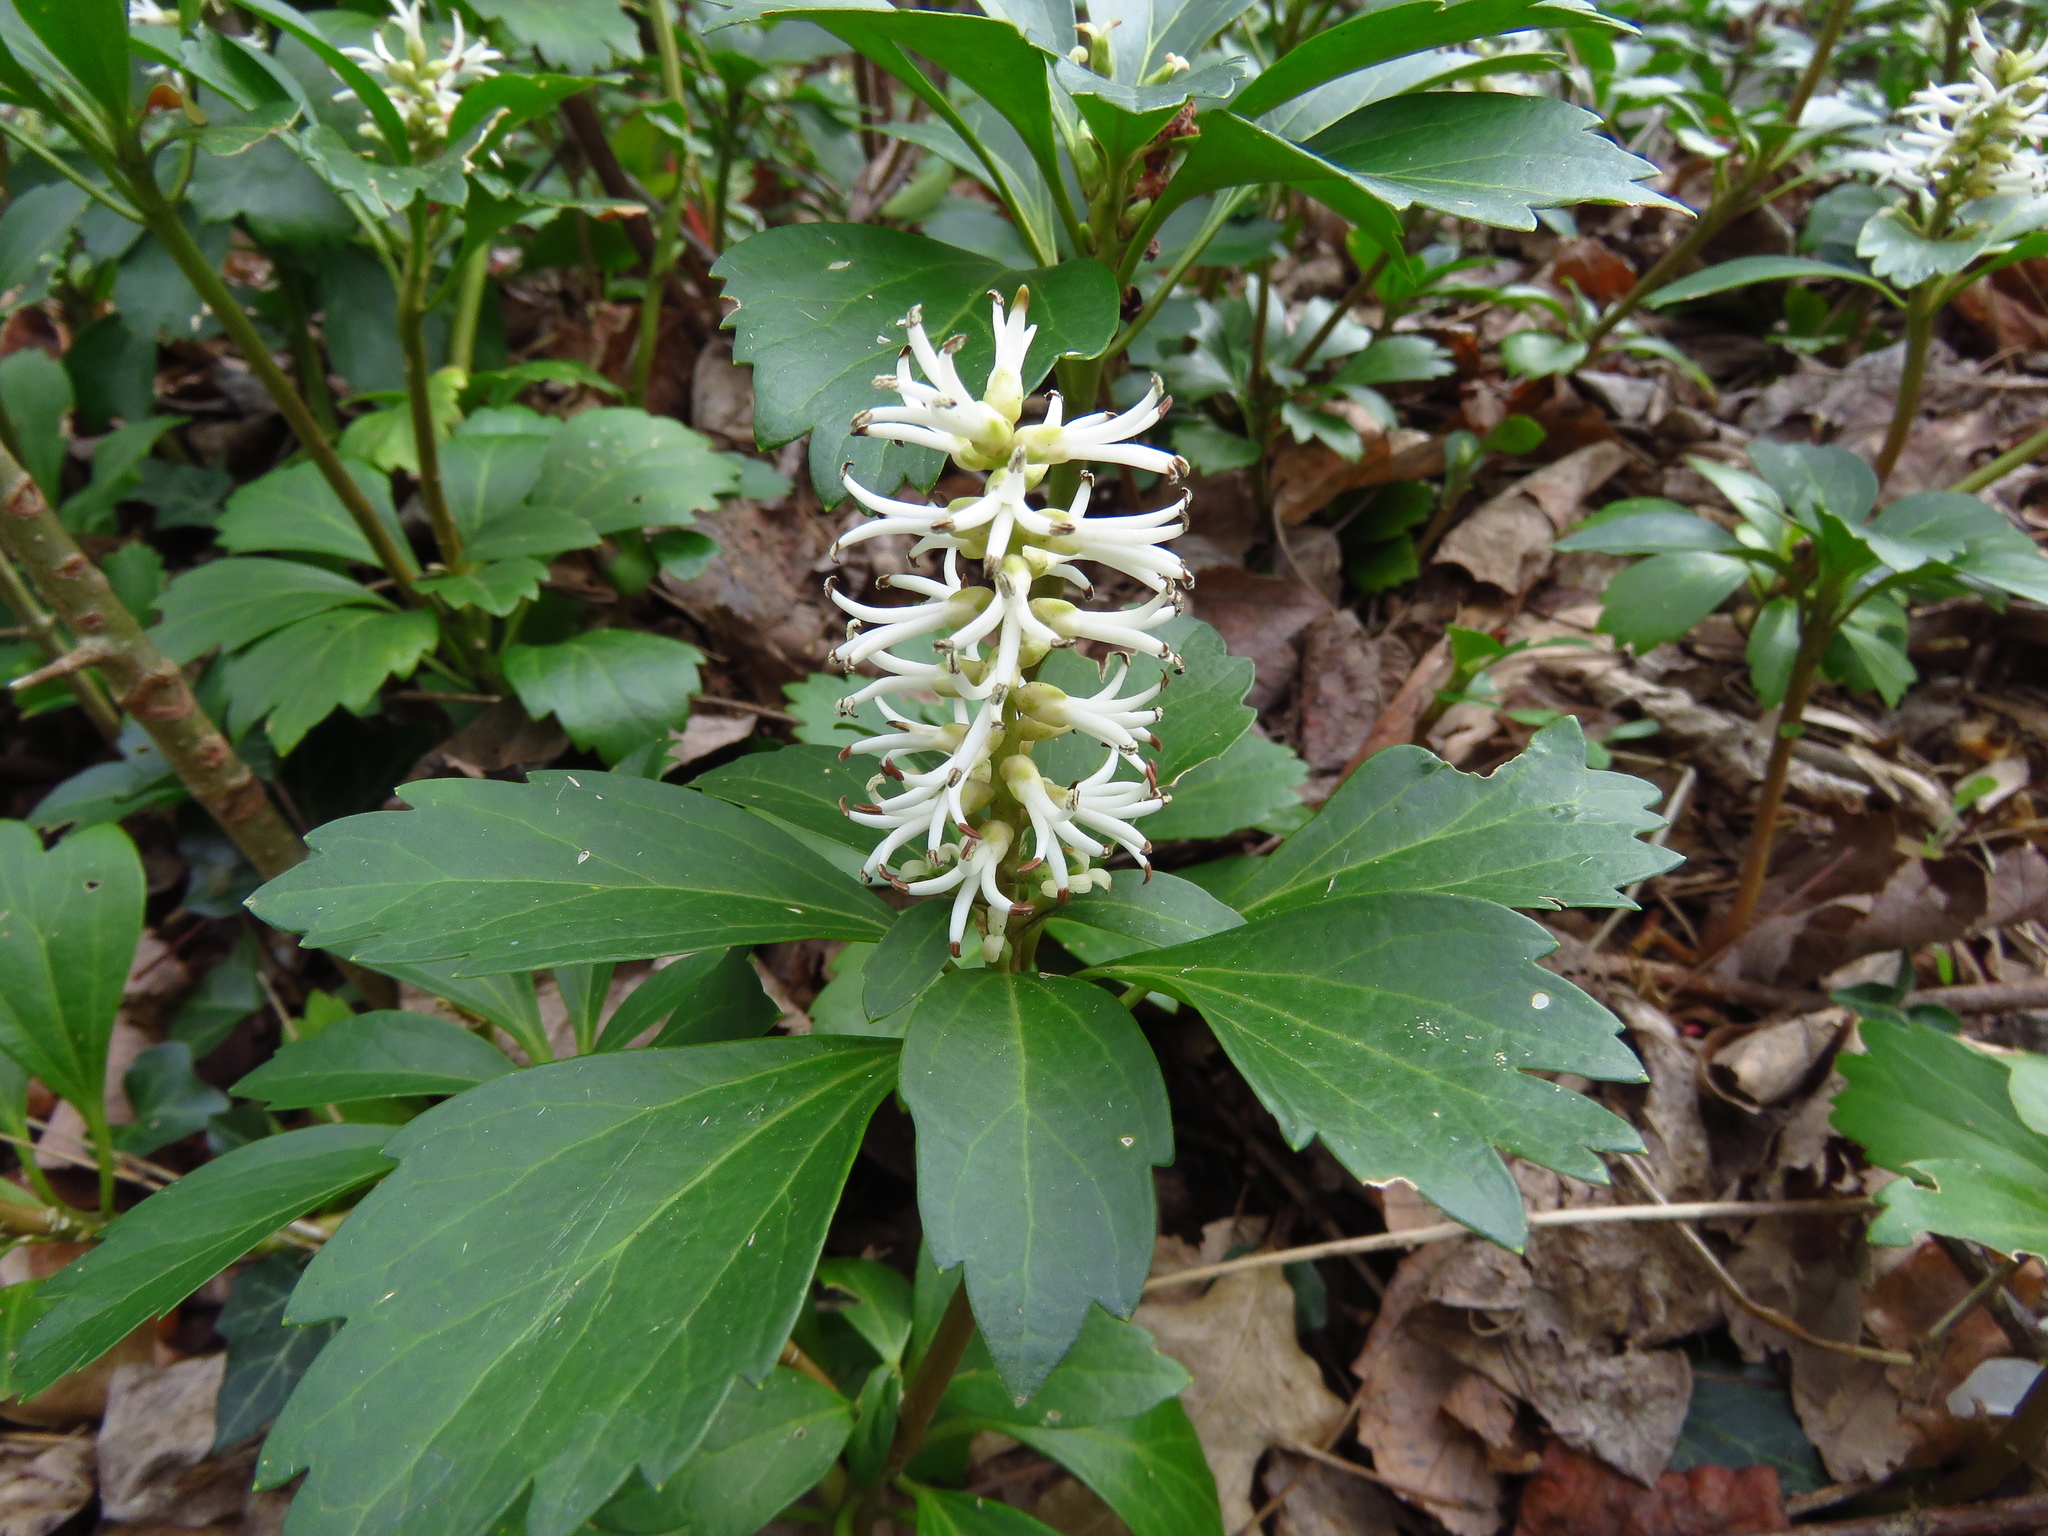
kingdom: Plantae
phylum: Tracheophyta
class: Magnoliopsida
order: Buxales
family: Buxaceae
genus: Pachysandra
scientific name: Pachysandra terminalis
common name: Japanese pachysandra
